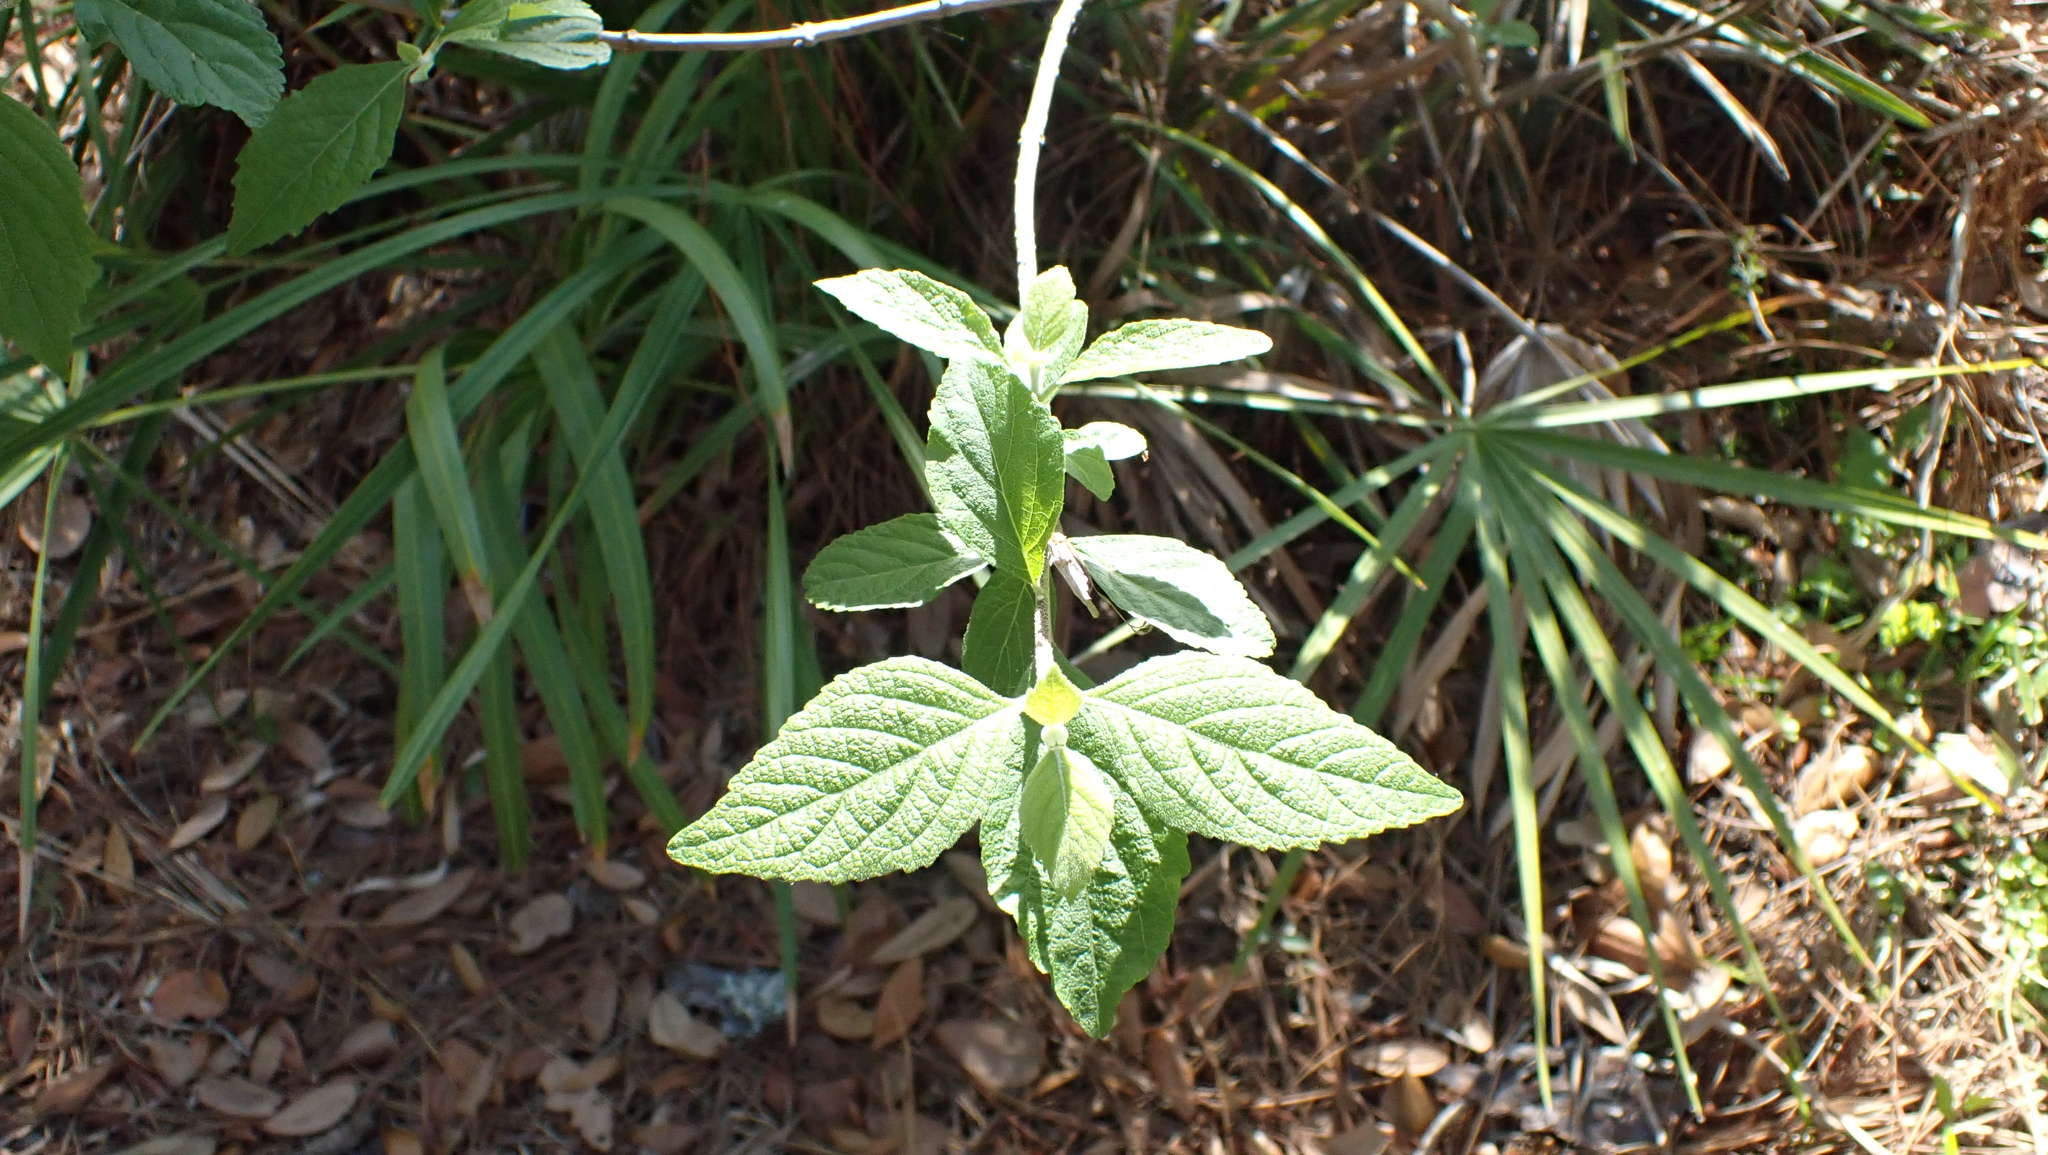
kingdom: Plantae
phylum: Tracheophyta
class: Magnoliopsida
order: Lamiales
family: Lamiaceae
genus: Callicarpa
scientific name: Callicarpa americana
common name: American beautyberry
